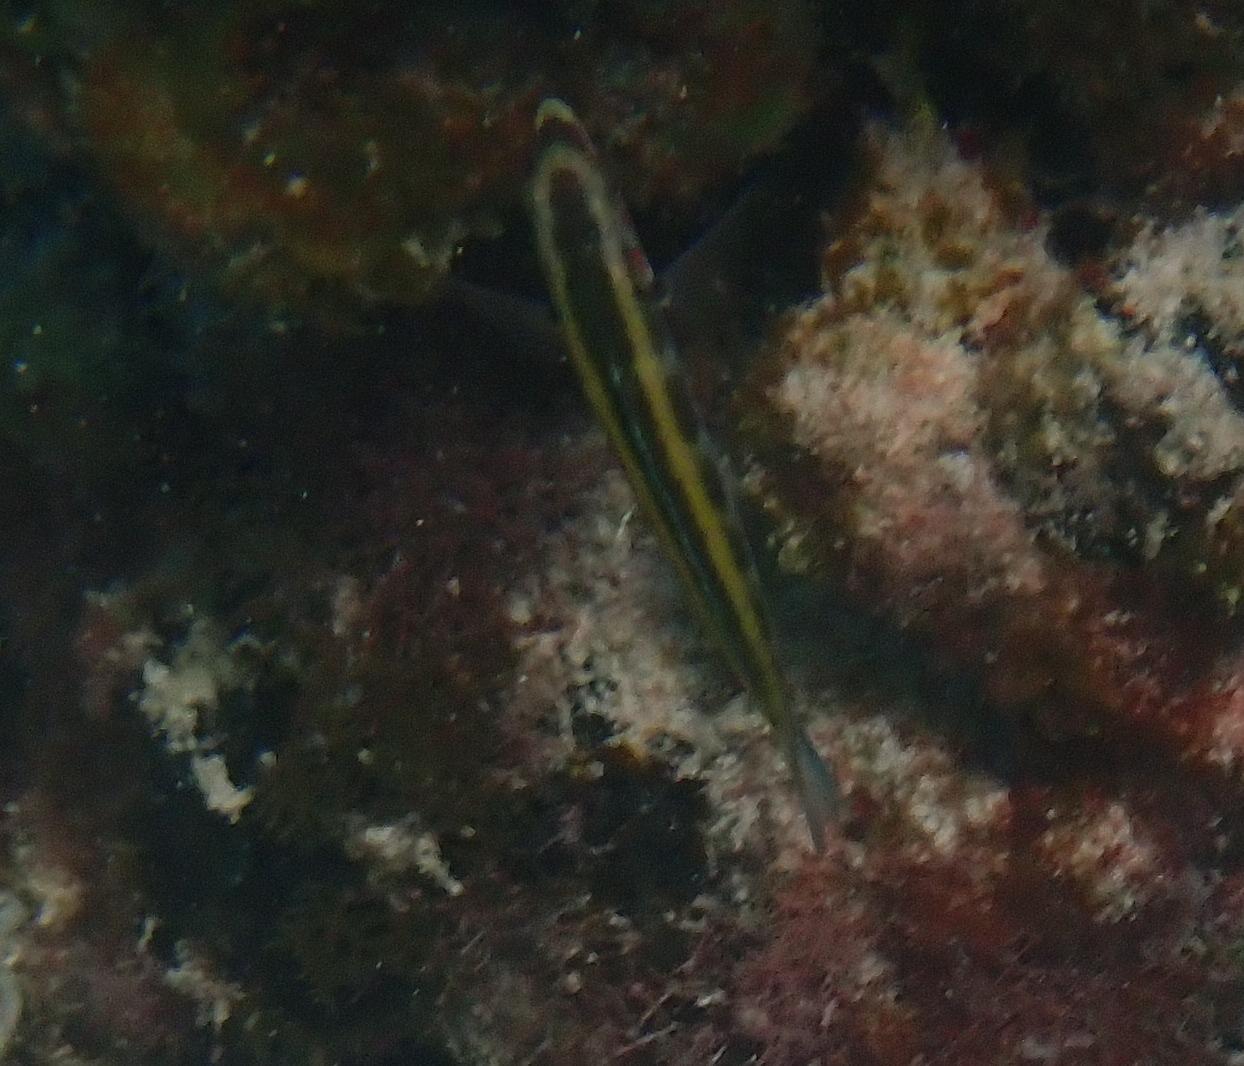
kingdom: Animalia
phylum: Chordata
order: Perciformes
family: Labridae
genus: Thalassoma
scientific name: Thalassoma bifasciatum
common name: Bluehead wrasse
